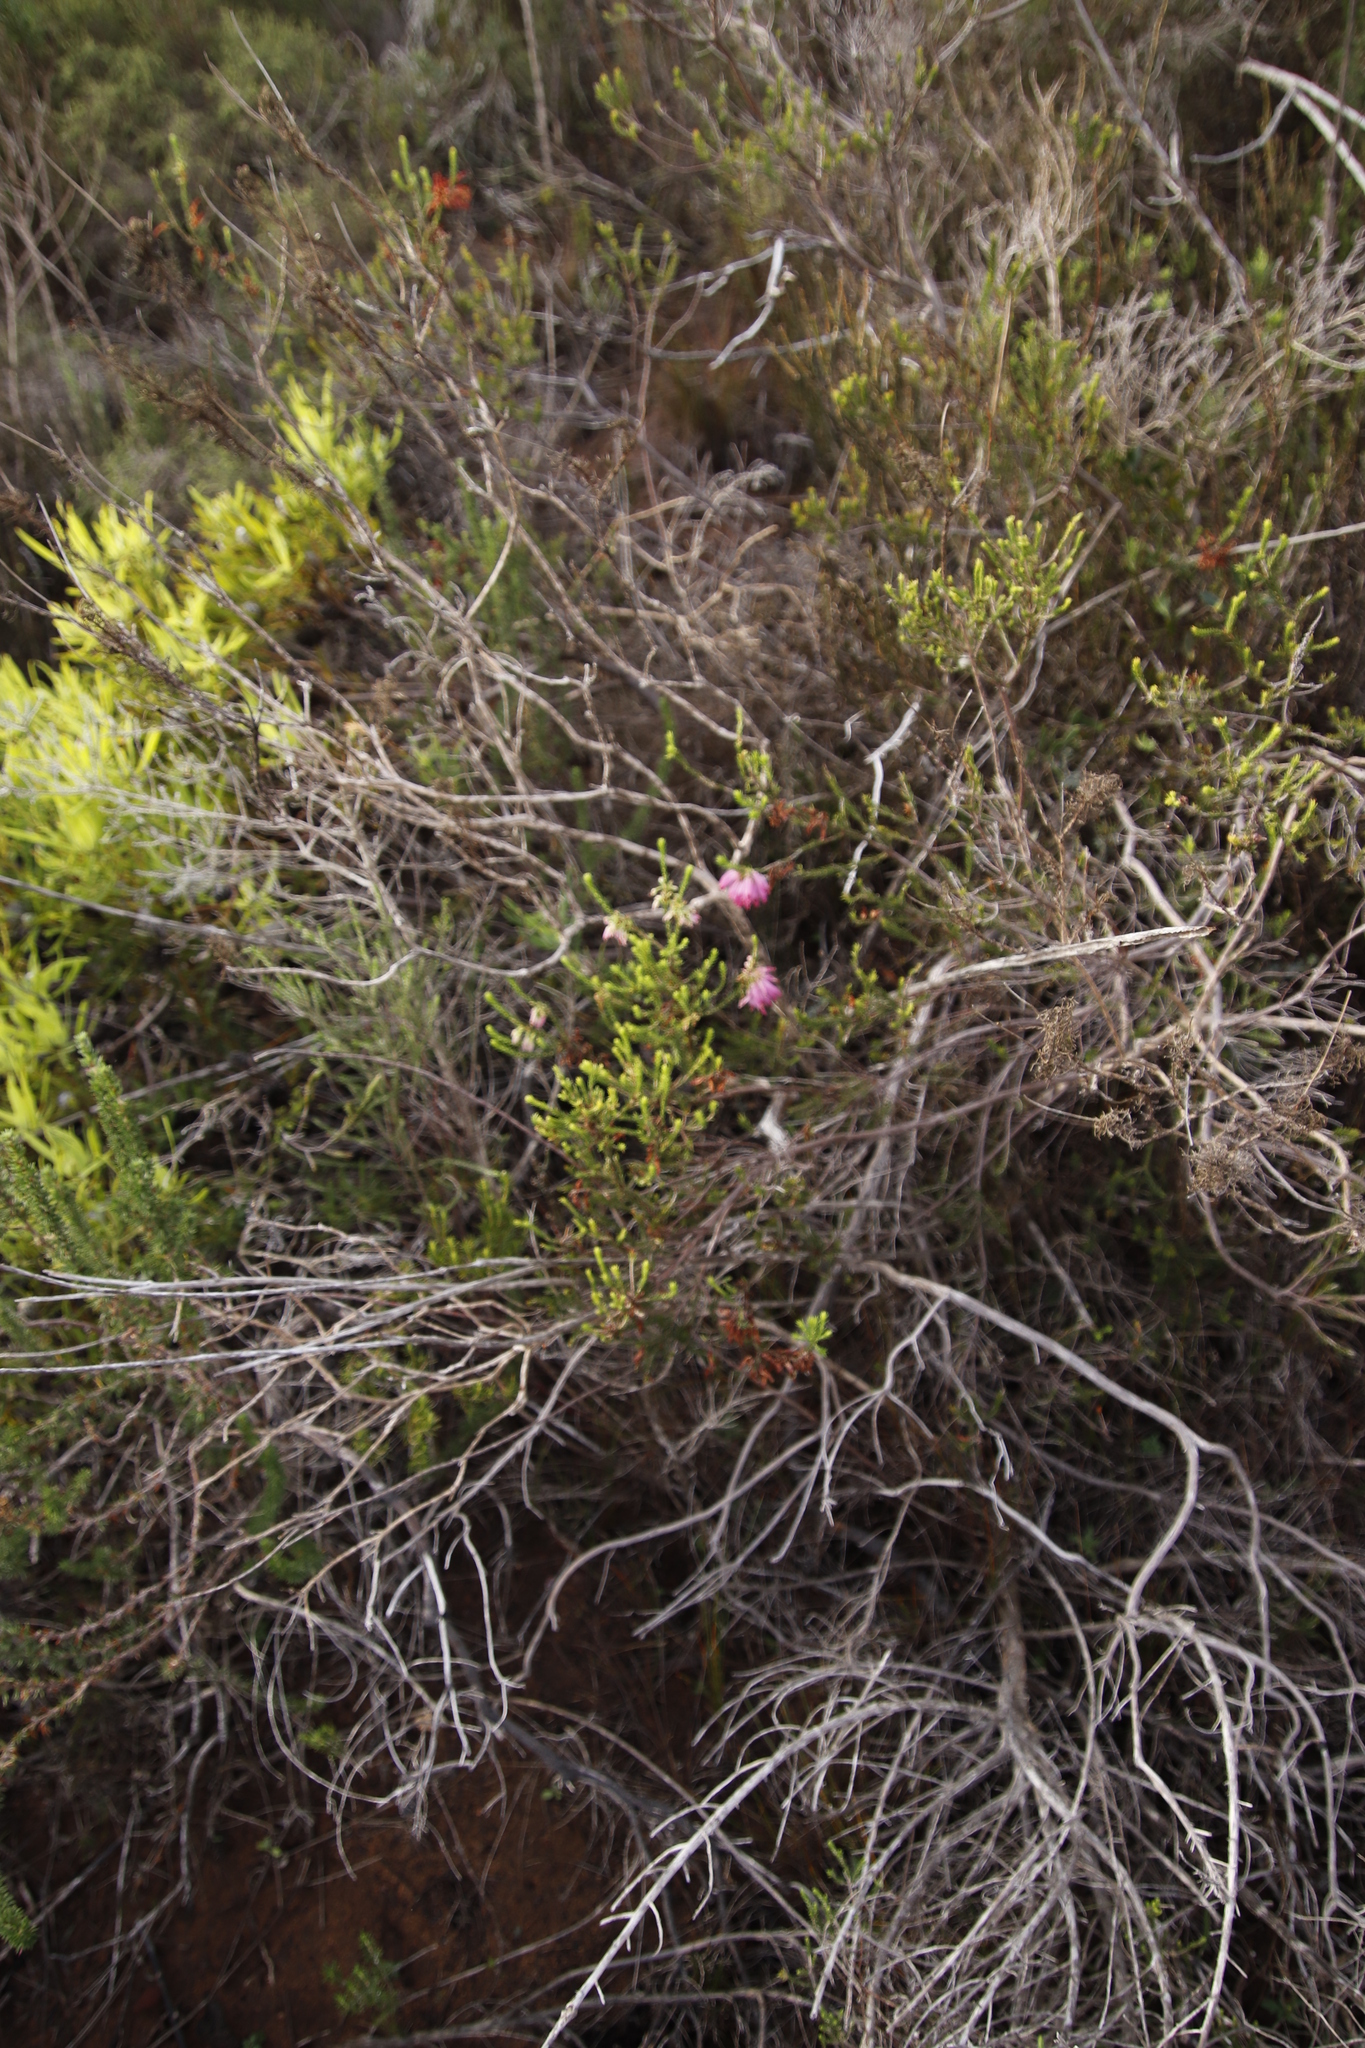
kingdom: Plantae
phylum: Tracheophyta
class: Magnoliopsida
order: Ericales
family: Ericaceae
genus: Erica
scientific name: Erica mammosa
